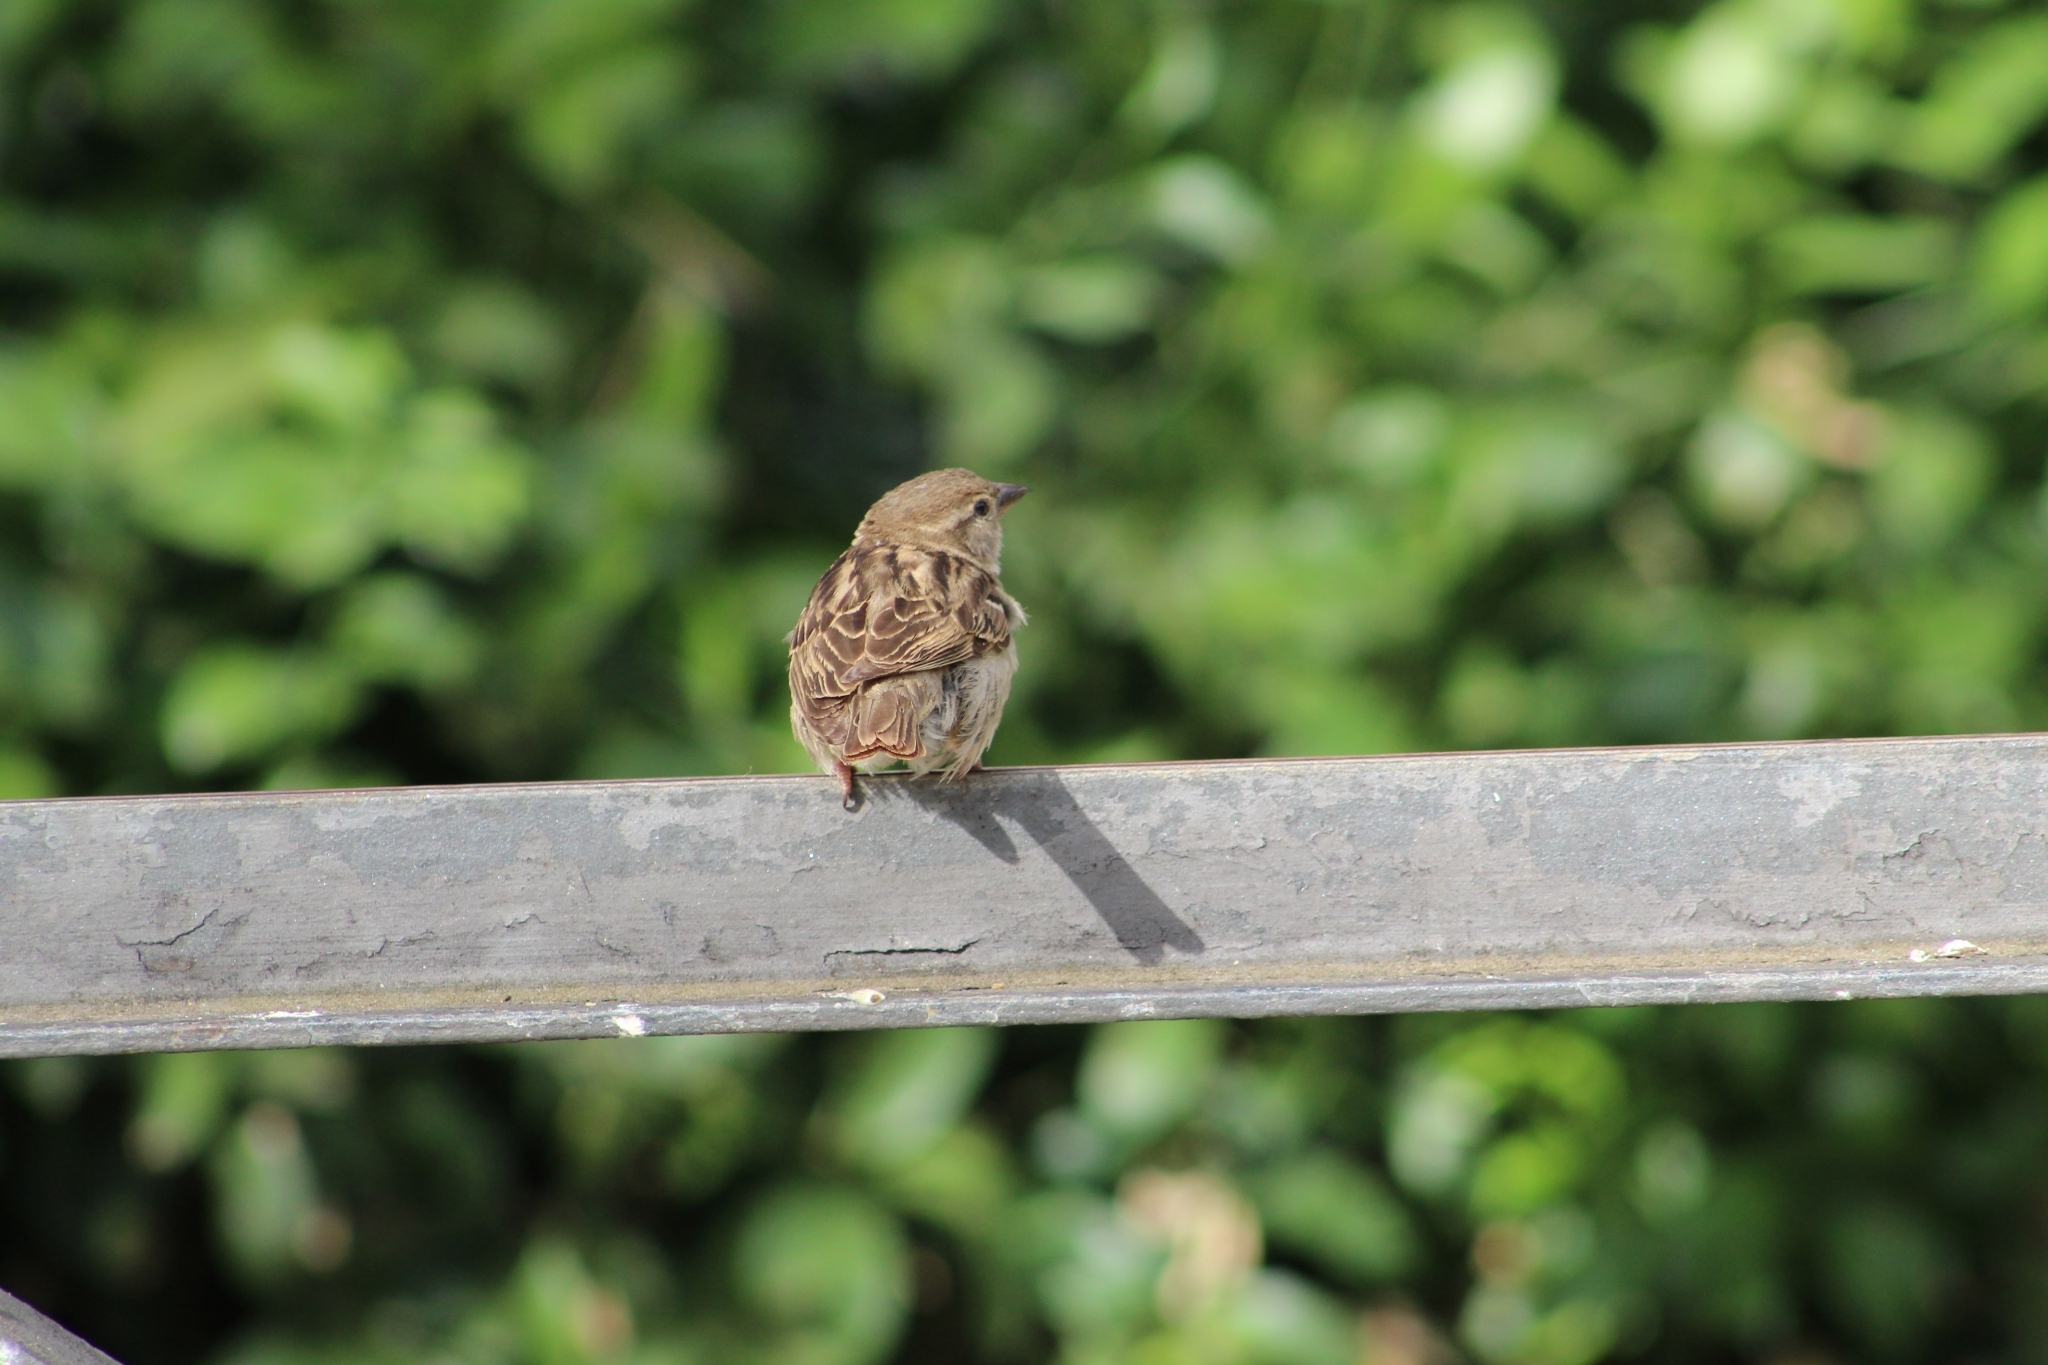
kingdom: Animalia
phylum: Chordata
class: Aves
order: Passeriformes
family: Passeridae
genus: Passer
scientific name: Passer domesticus
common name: House sparrow
